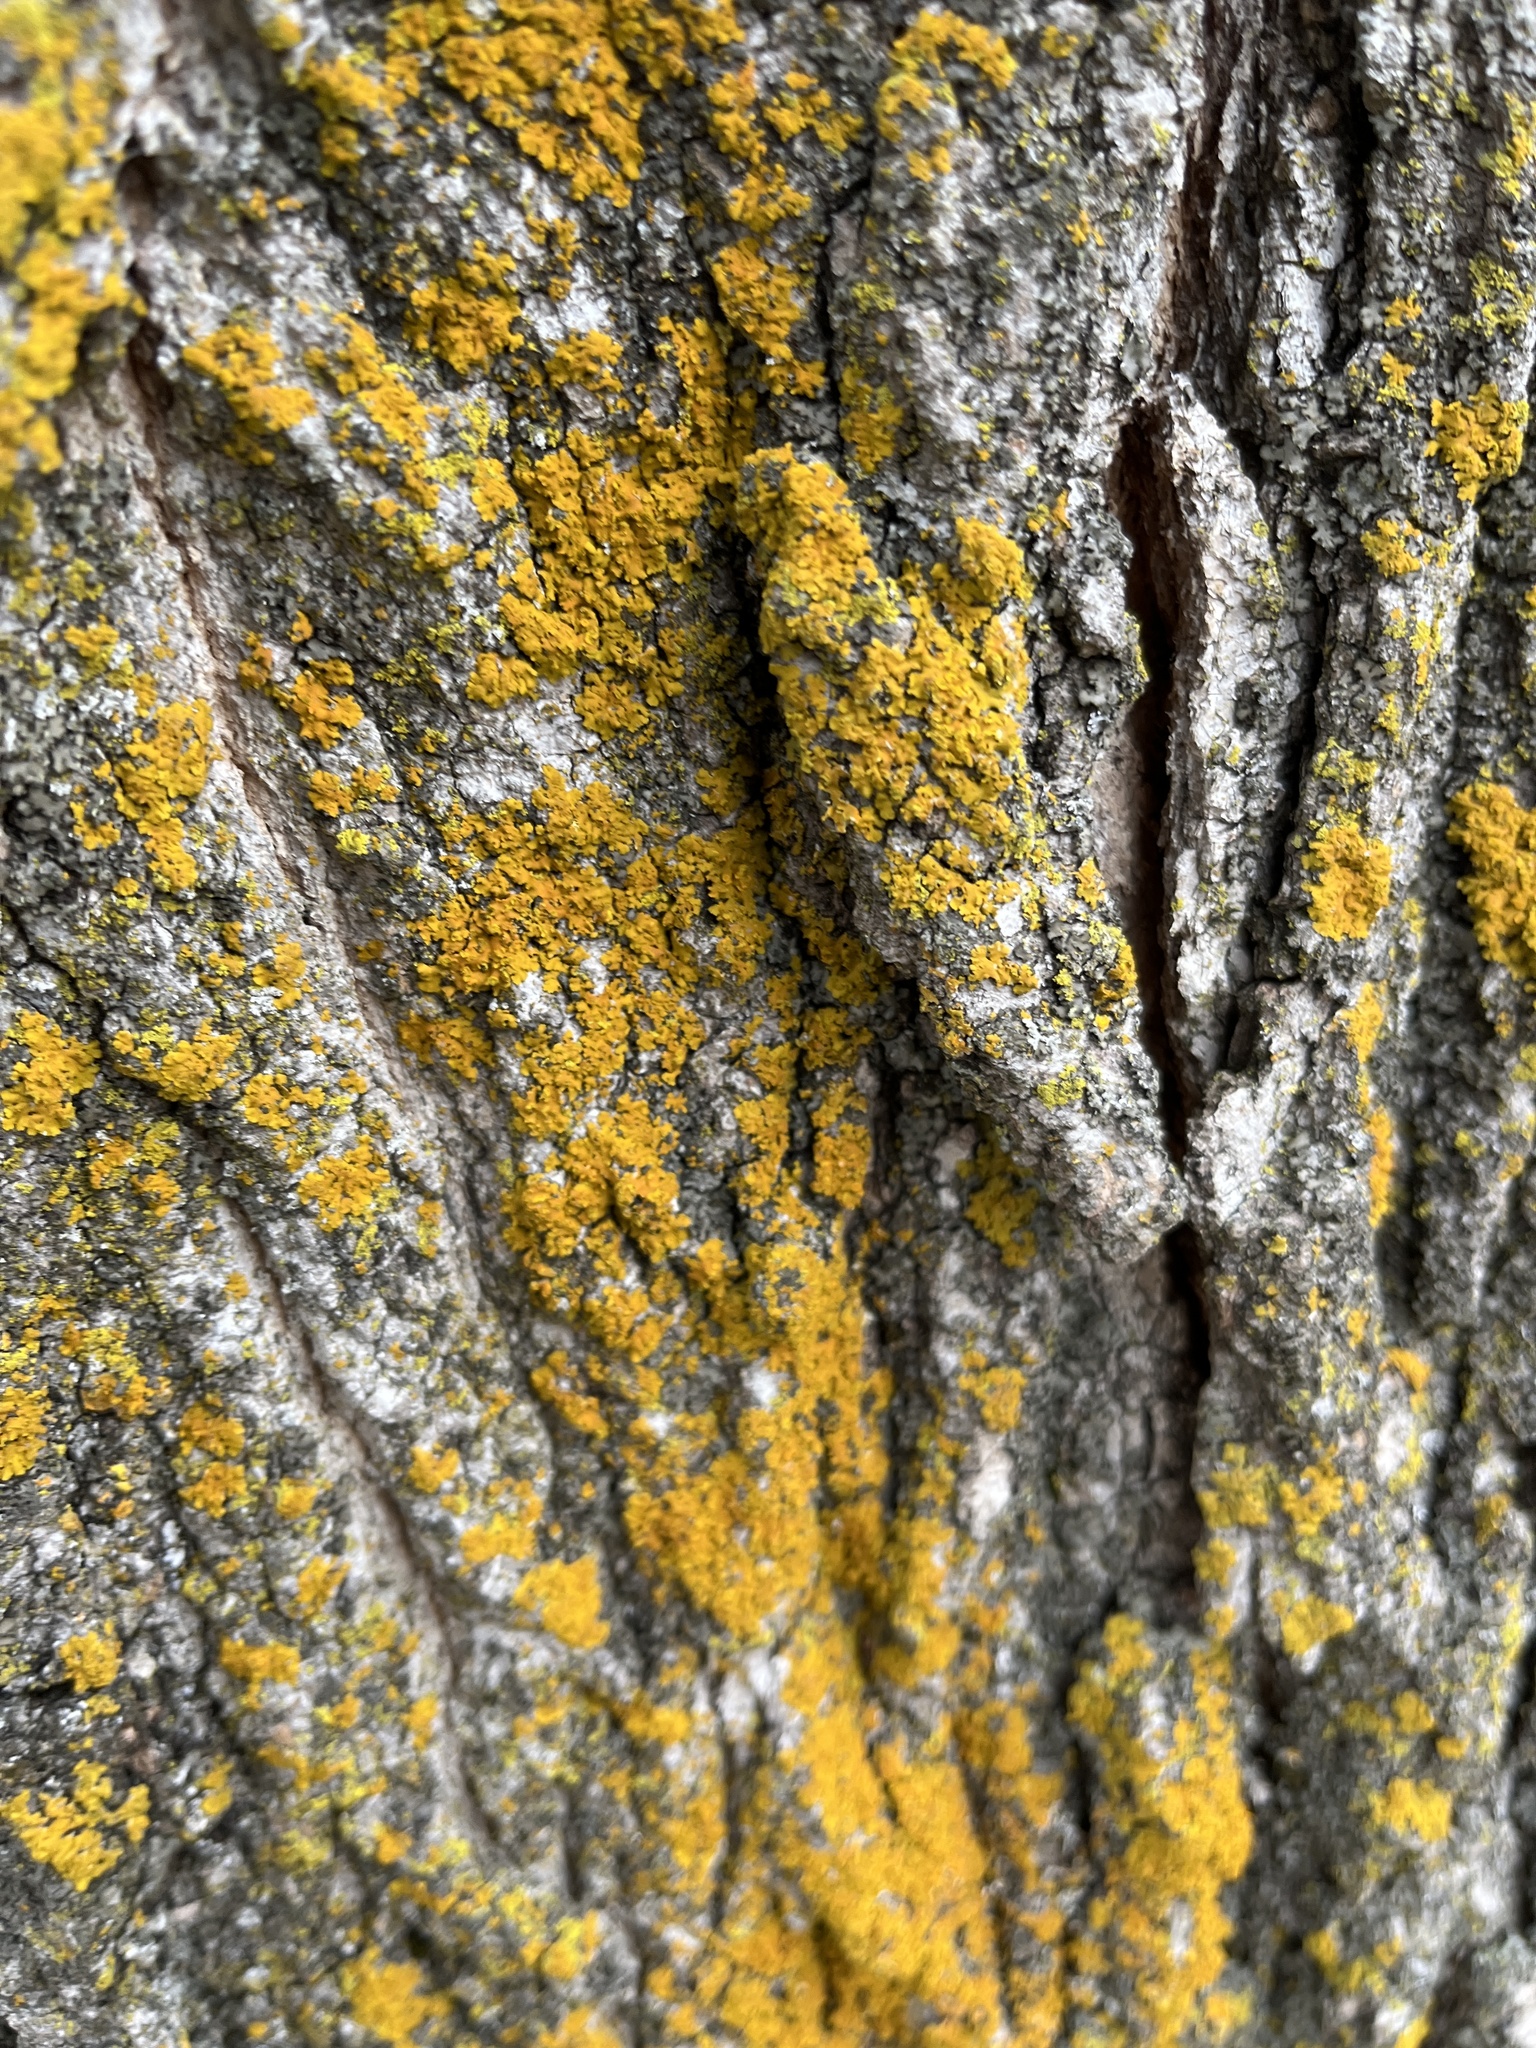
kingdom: Fungi
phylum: Ascomycota
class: Lecanoromycetes
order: Teloschistales
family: Teloschistaceae
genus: Oxneria
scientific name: Oxneria fallax
